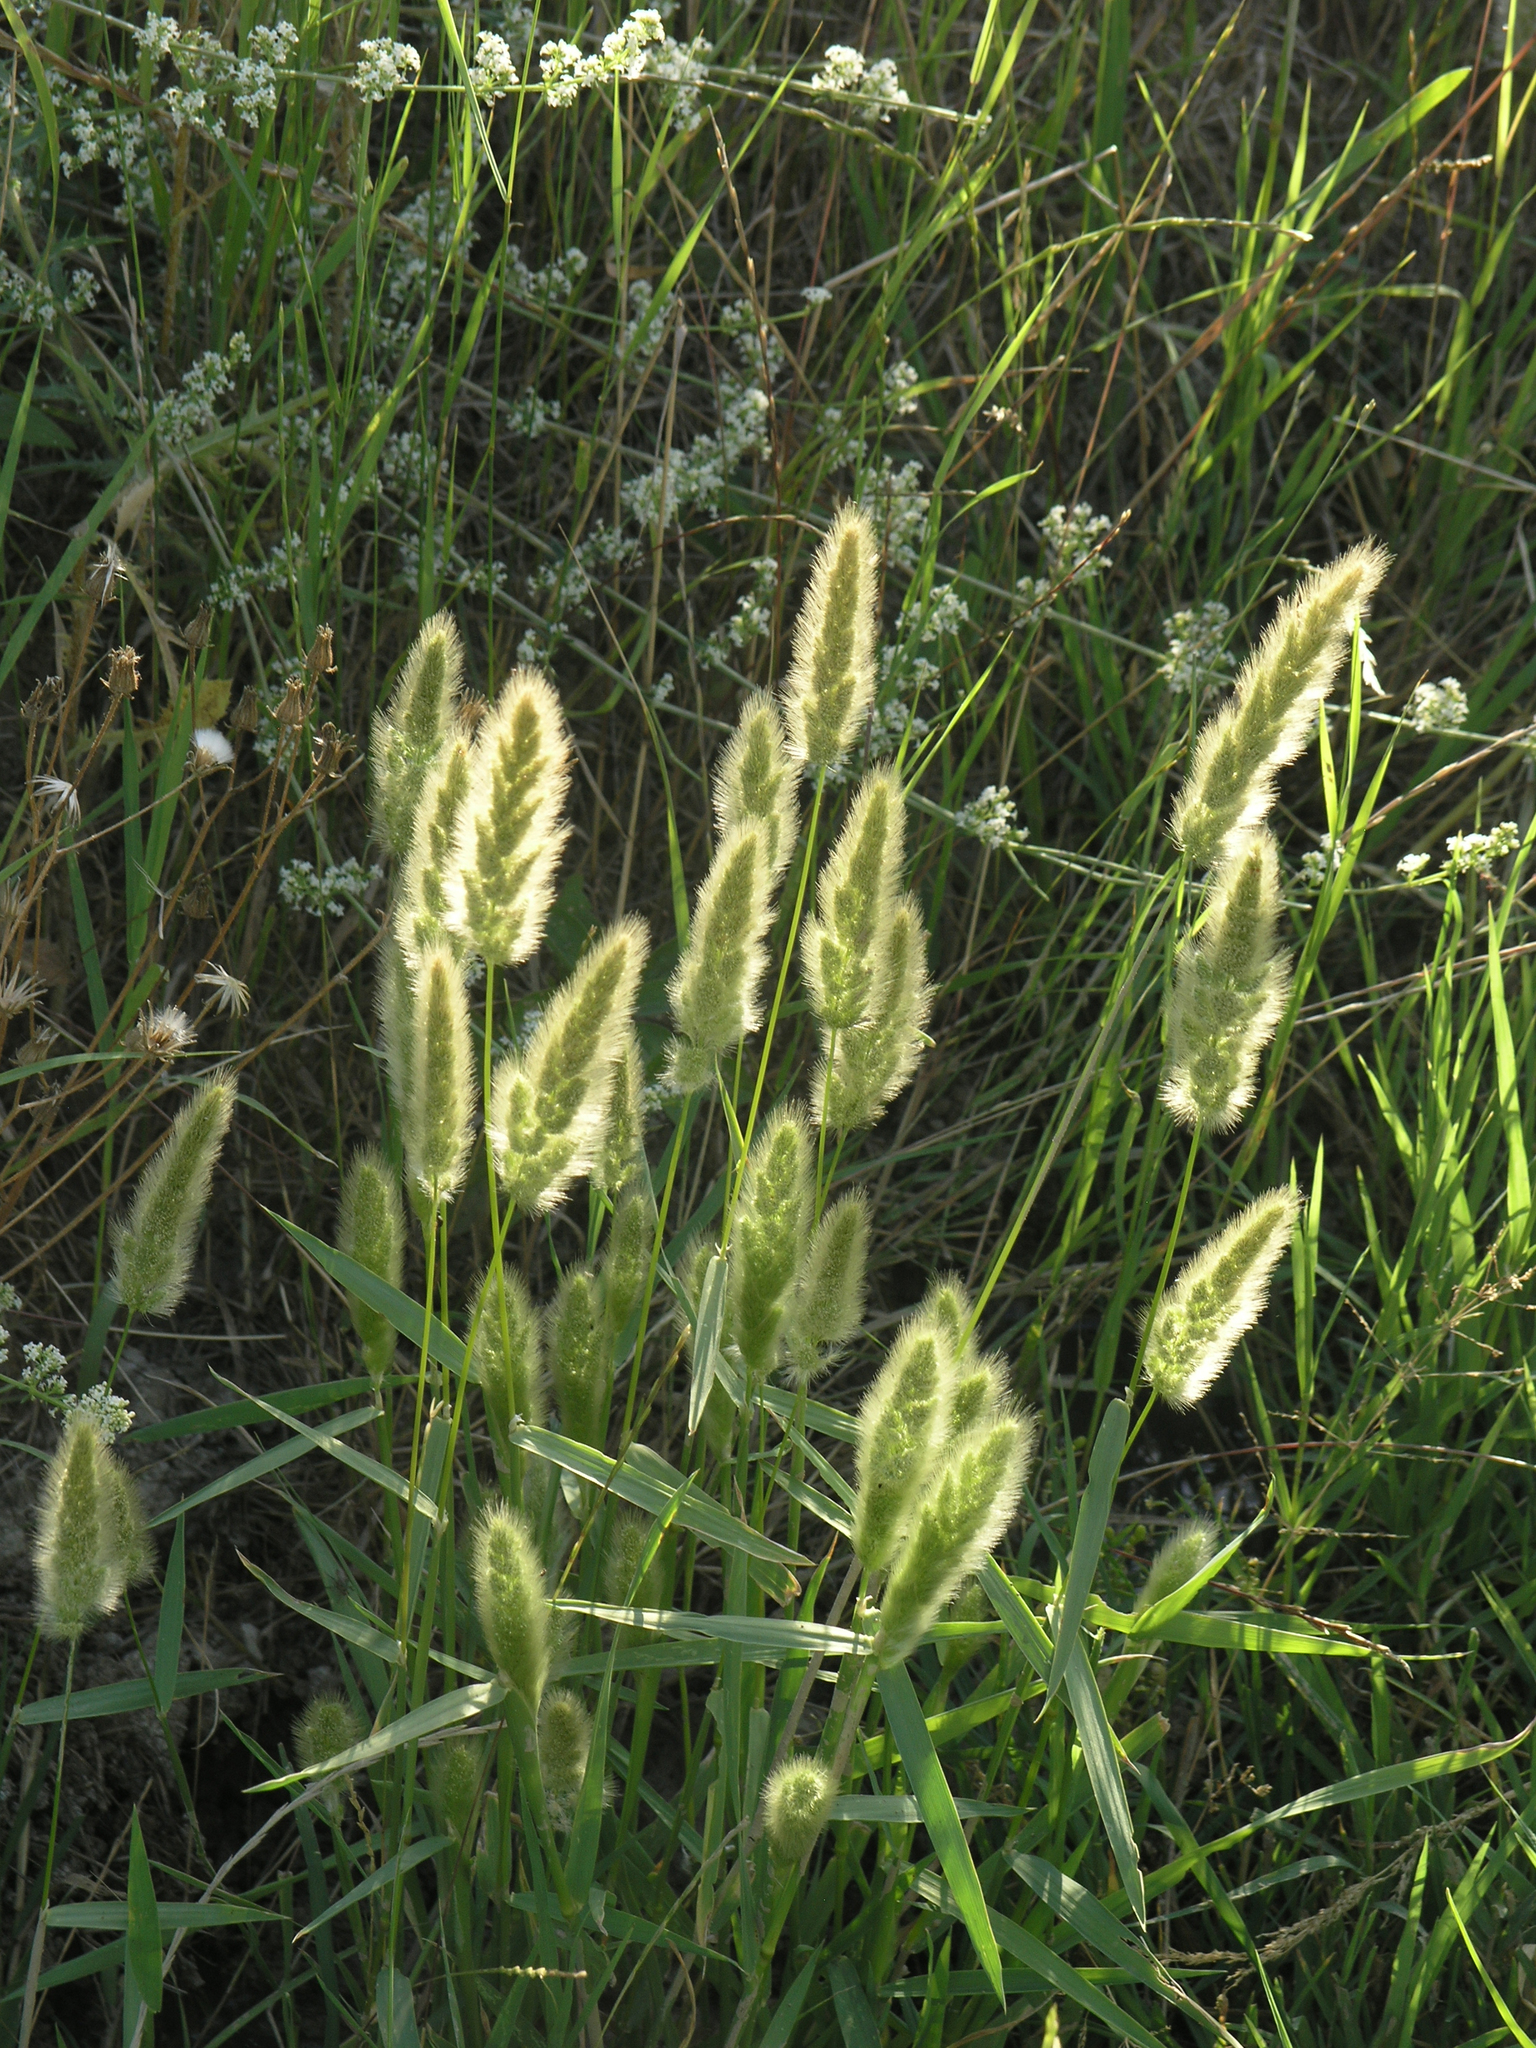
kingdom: Plantae
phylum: Tracheophyta
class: Liliopsida
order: Poales
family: Poaceae
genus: Polypogon
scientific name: Polypogon monspeliensis
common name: Annual rabbitsfoot grass
